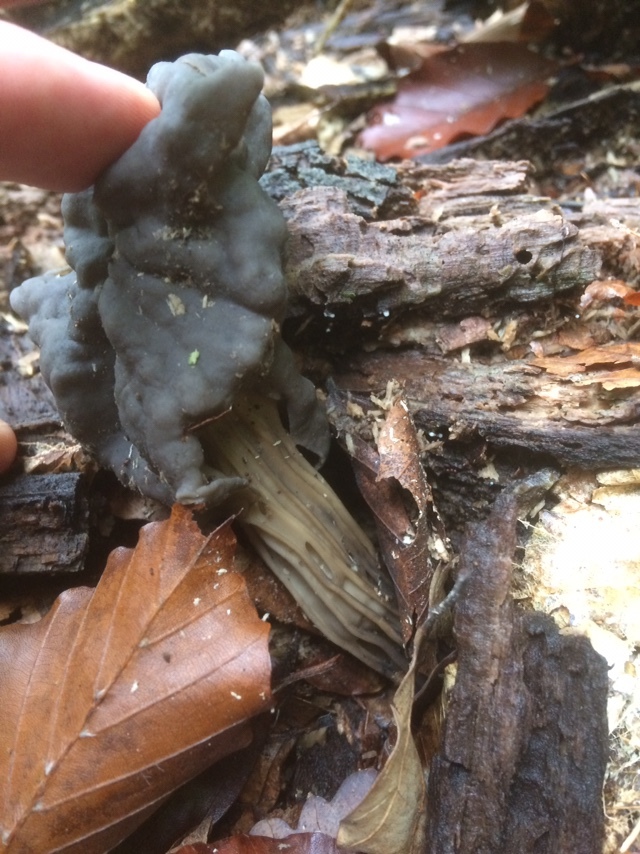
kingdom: Fungi
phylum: Ascomycota
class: Pezizomycetes
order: Pezizales
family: Helvellaceae
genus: Helvella
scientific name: Helvella lacunosa
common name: Elfin saddle
